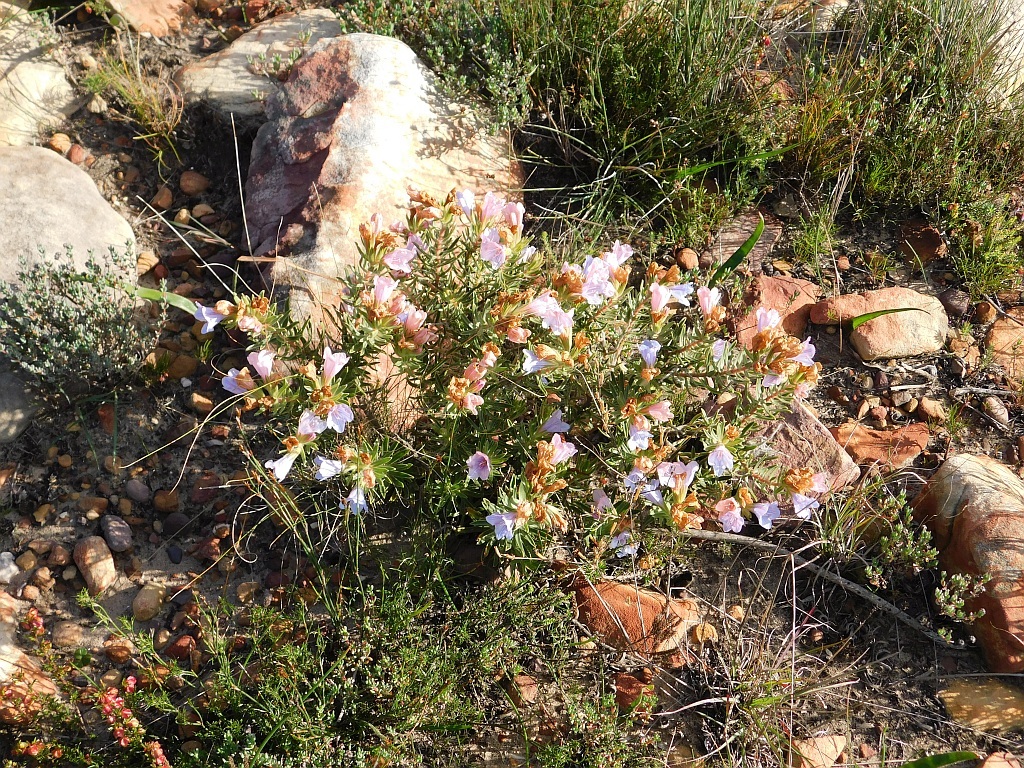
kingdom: Plantae
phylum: Tracheophyta
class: Magnoliopsida
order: Boraginales
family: Boraginaceae
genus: Lobostemon
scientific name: Lobostemon fruticosus
